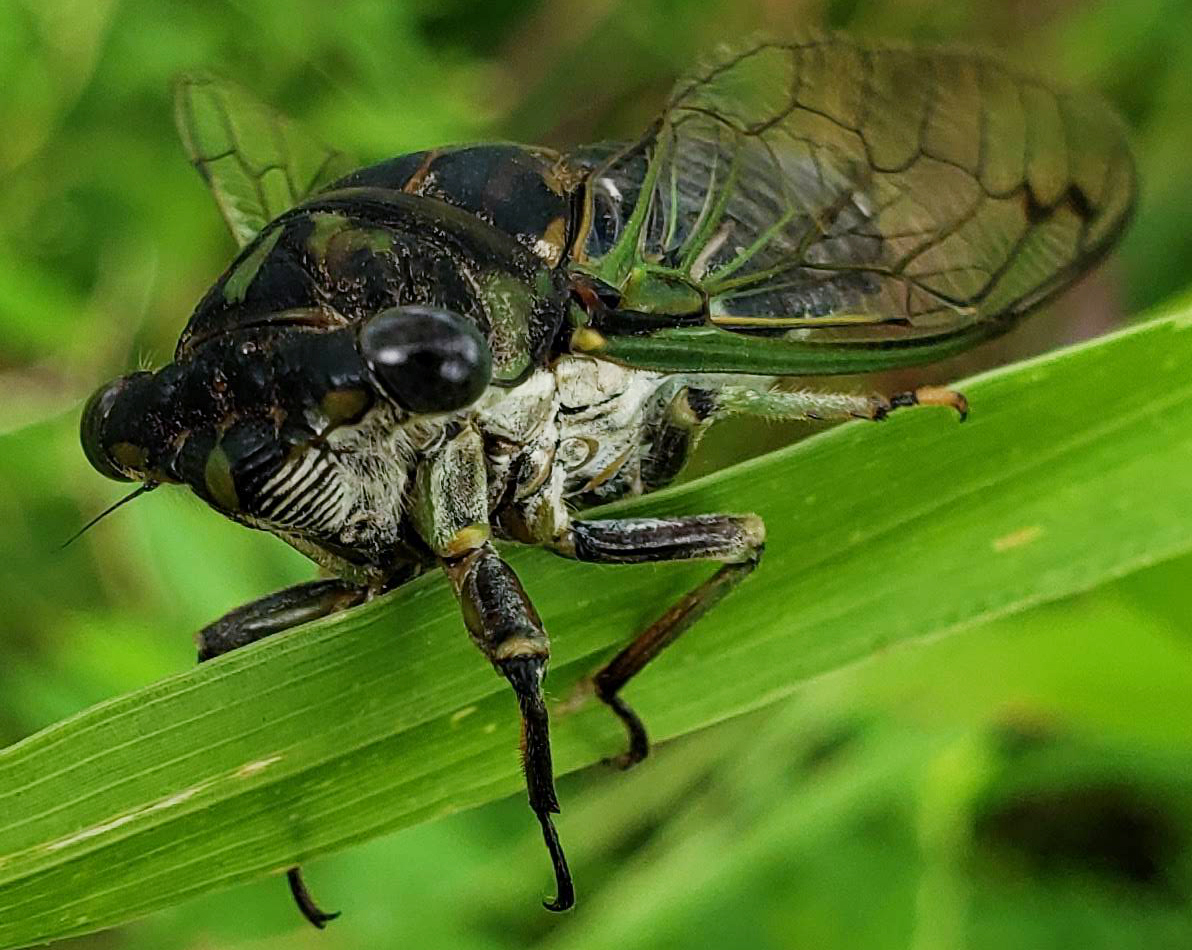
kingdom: Animalia
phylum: Arthropoda
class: Insecta
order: Hemiptera
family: Cicadidae
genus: Neotibicen
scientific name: Neotibicen canicularis
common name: God-day cicada
